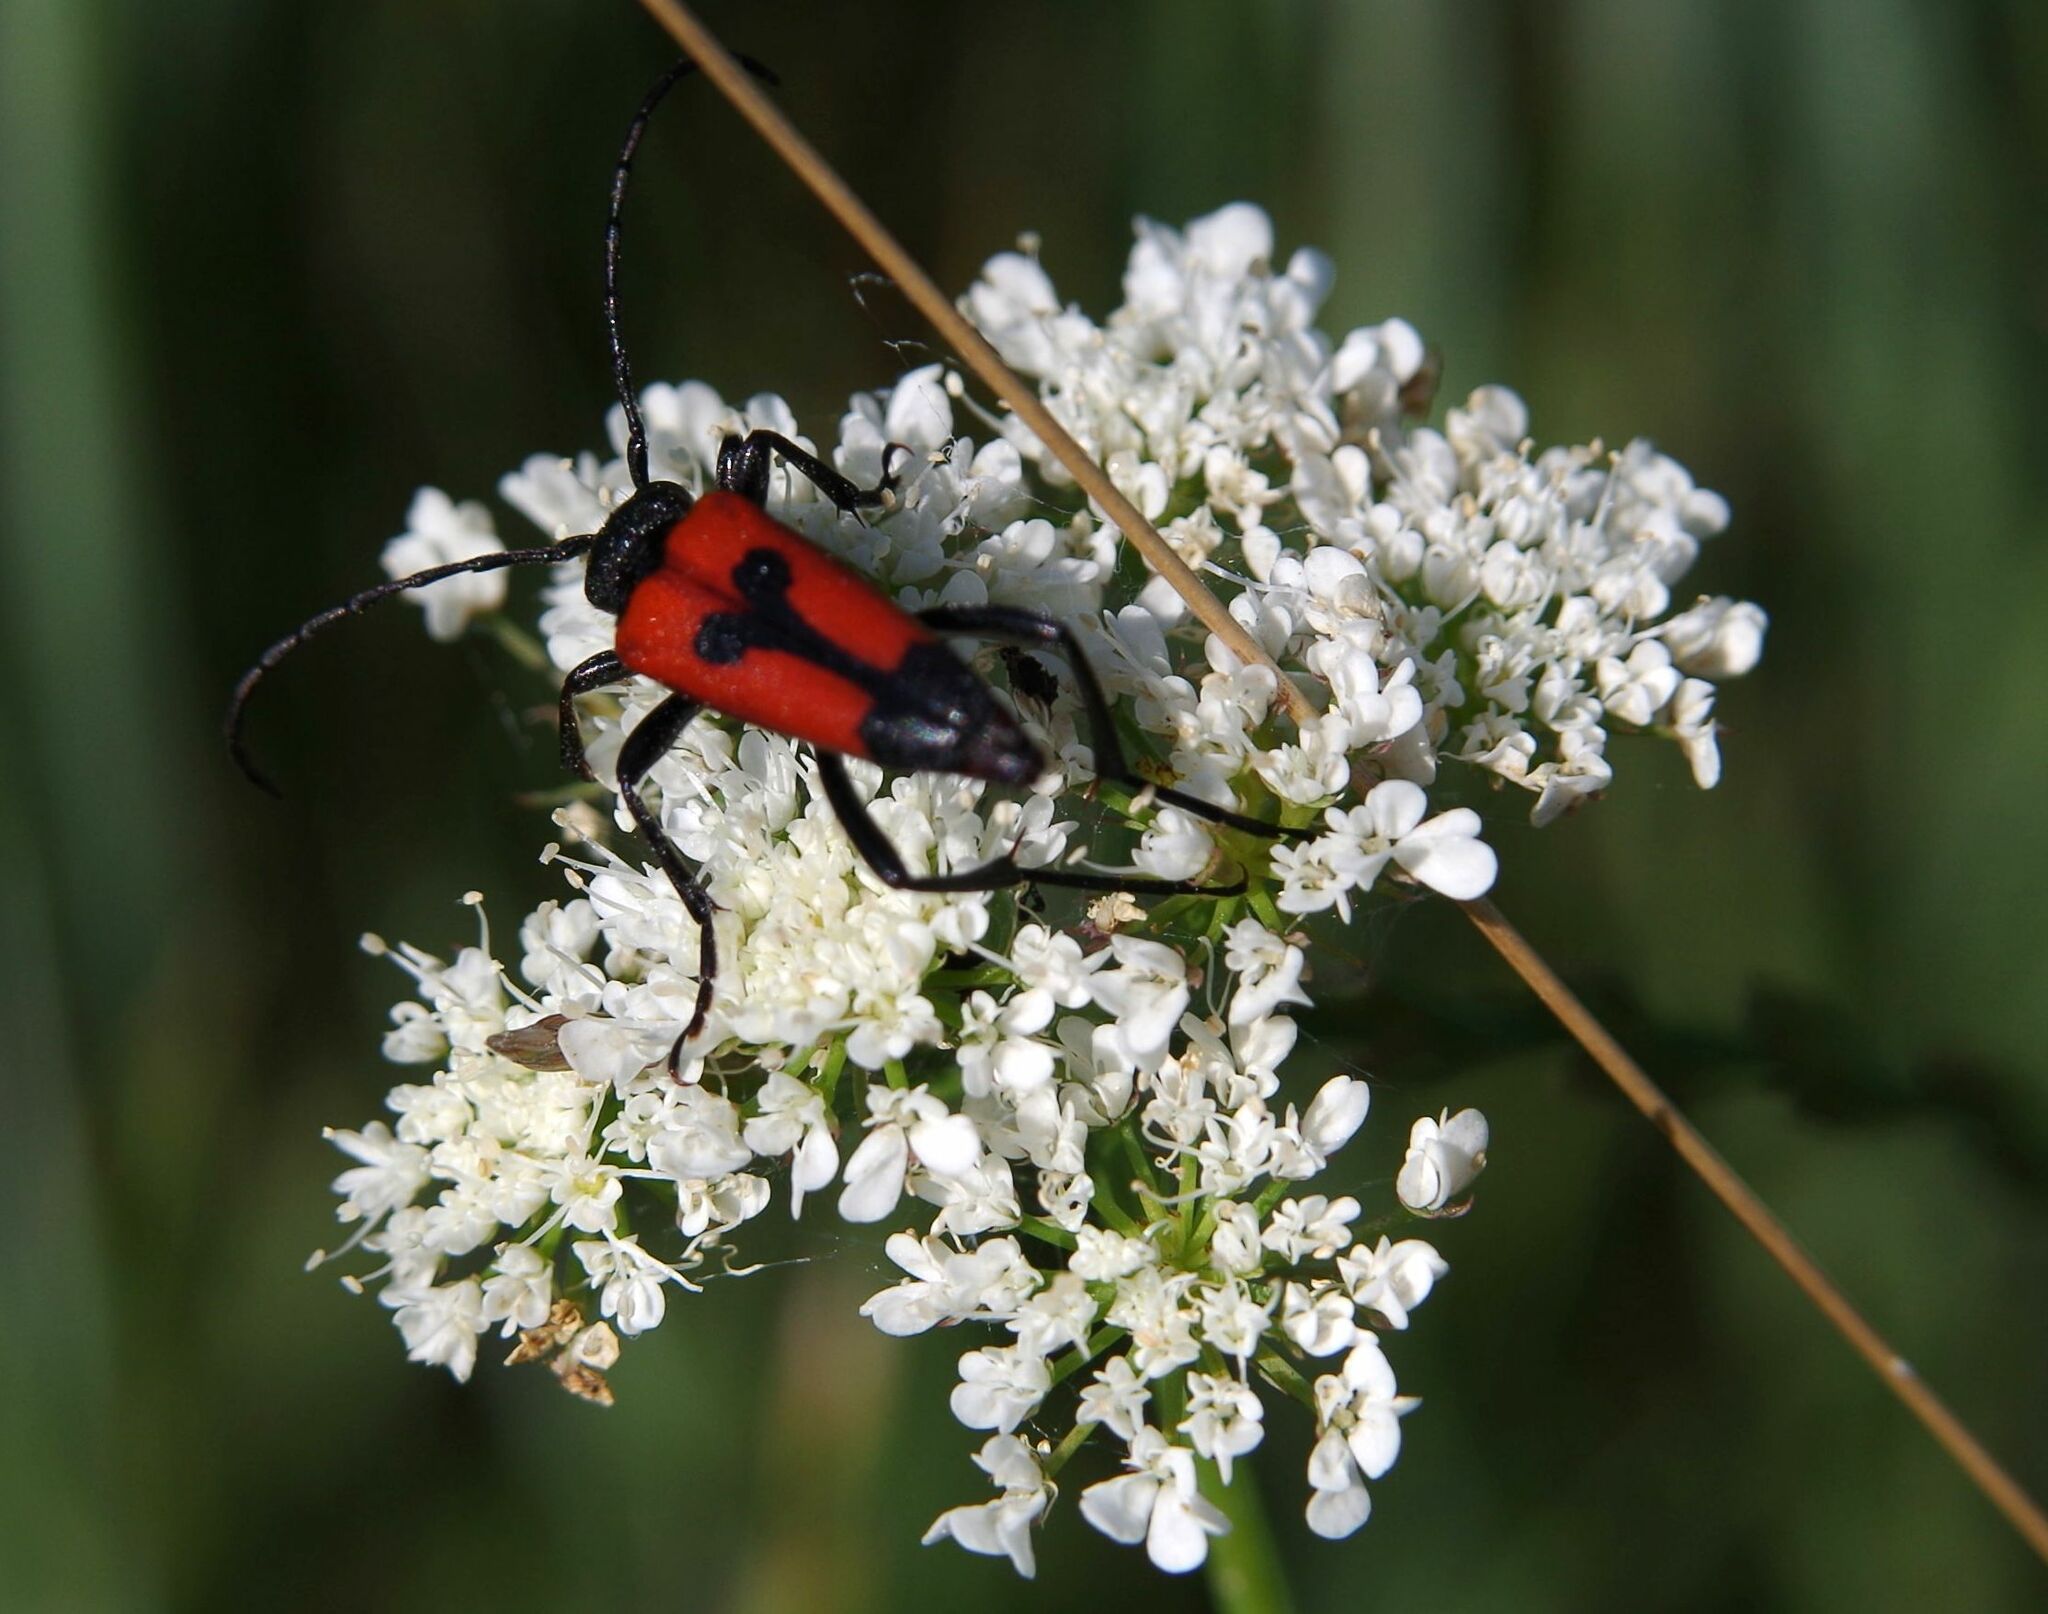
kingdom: Animalia
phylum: Arthropoda
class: Insecta
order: Coleoptera
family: Cerambycidae
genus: Stictoleptura
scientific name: Stictoleptura cordigera
